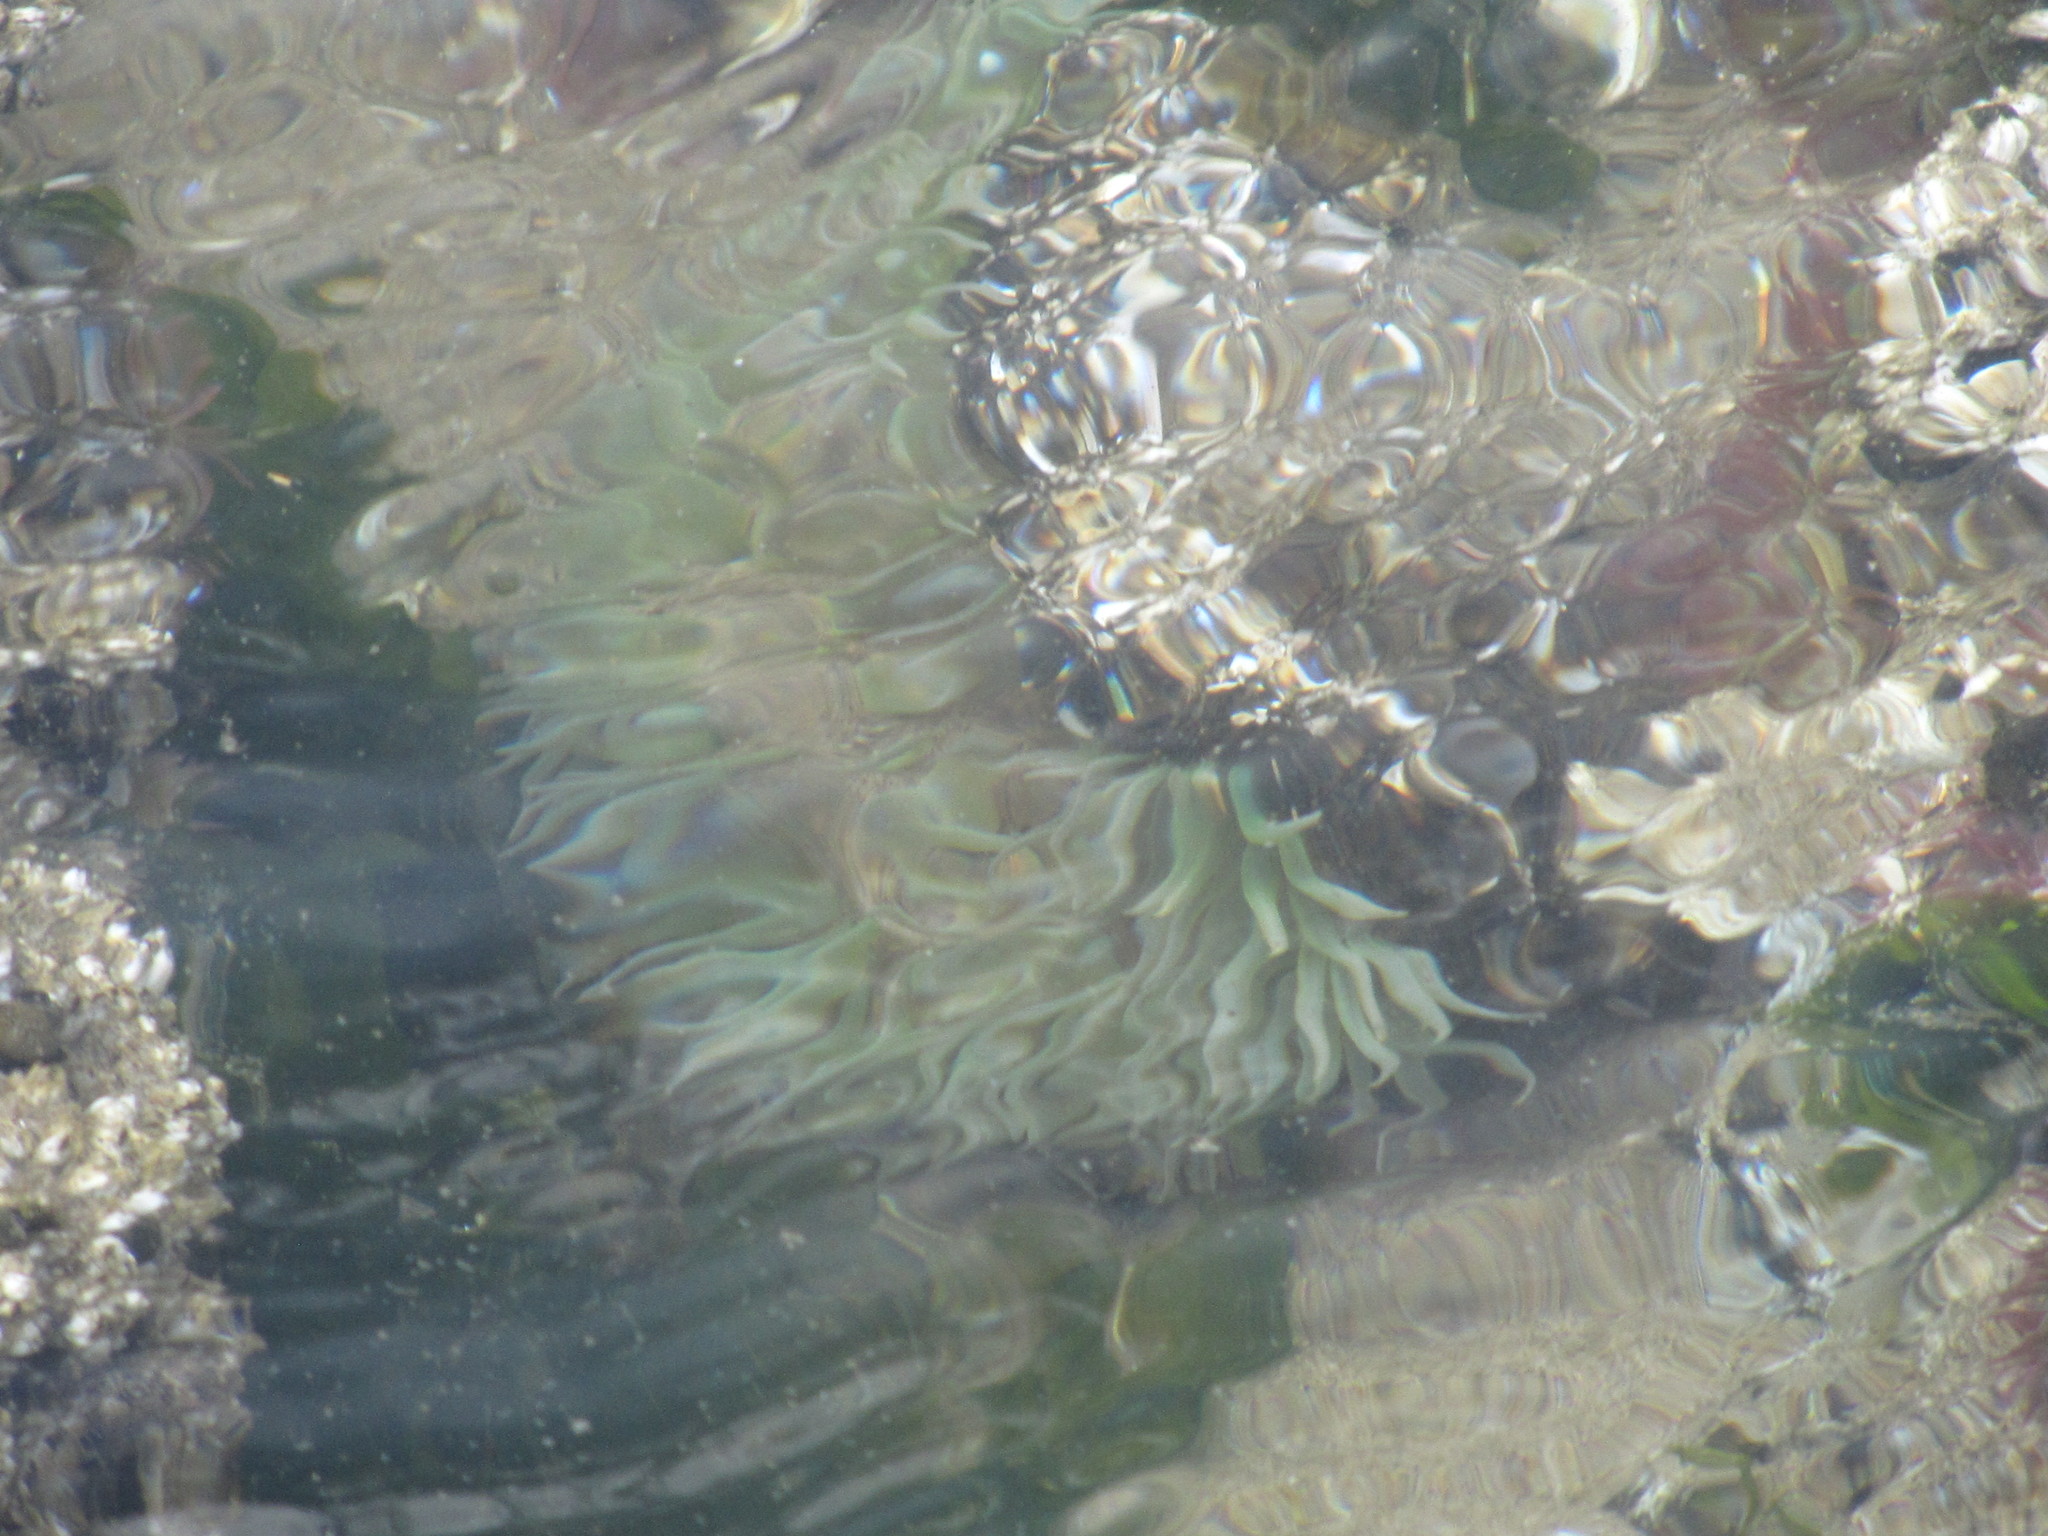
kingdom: Animalia
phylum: Cnidaria
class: Anthozoa
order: Actiniaria
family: Actiniidae
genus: Anthopleura
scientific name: Anthopleura xanthogrammica
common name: Giant green anemone
